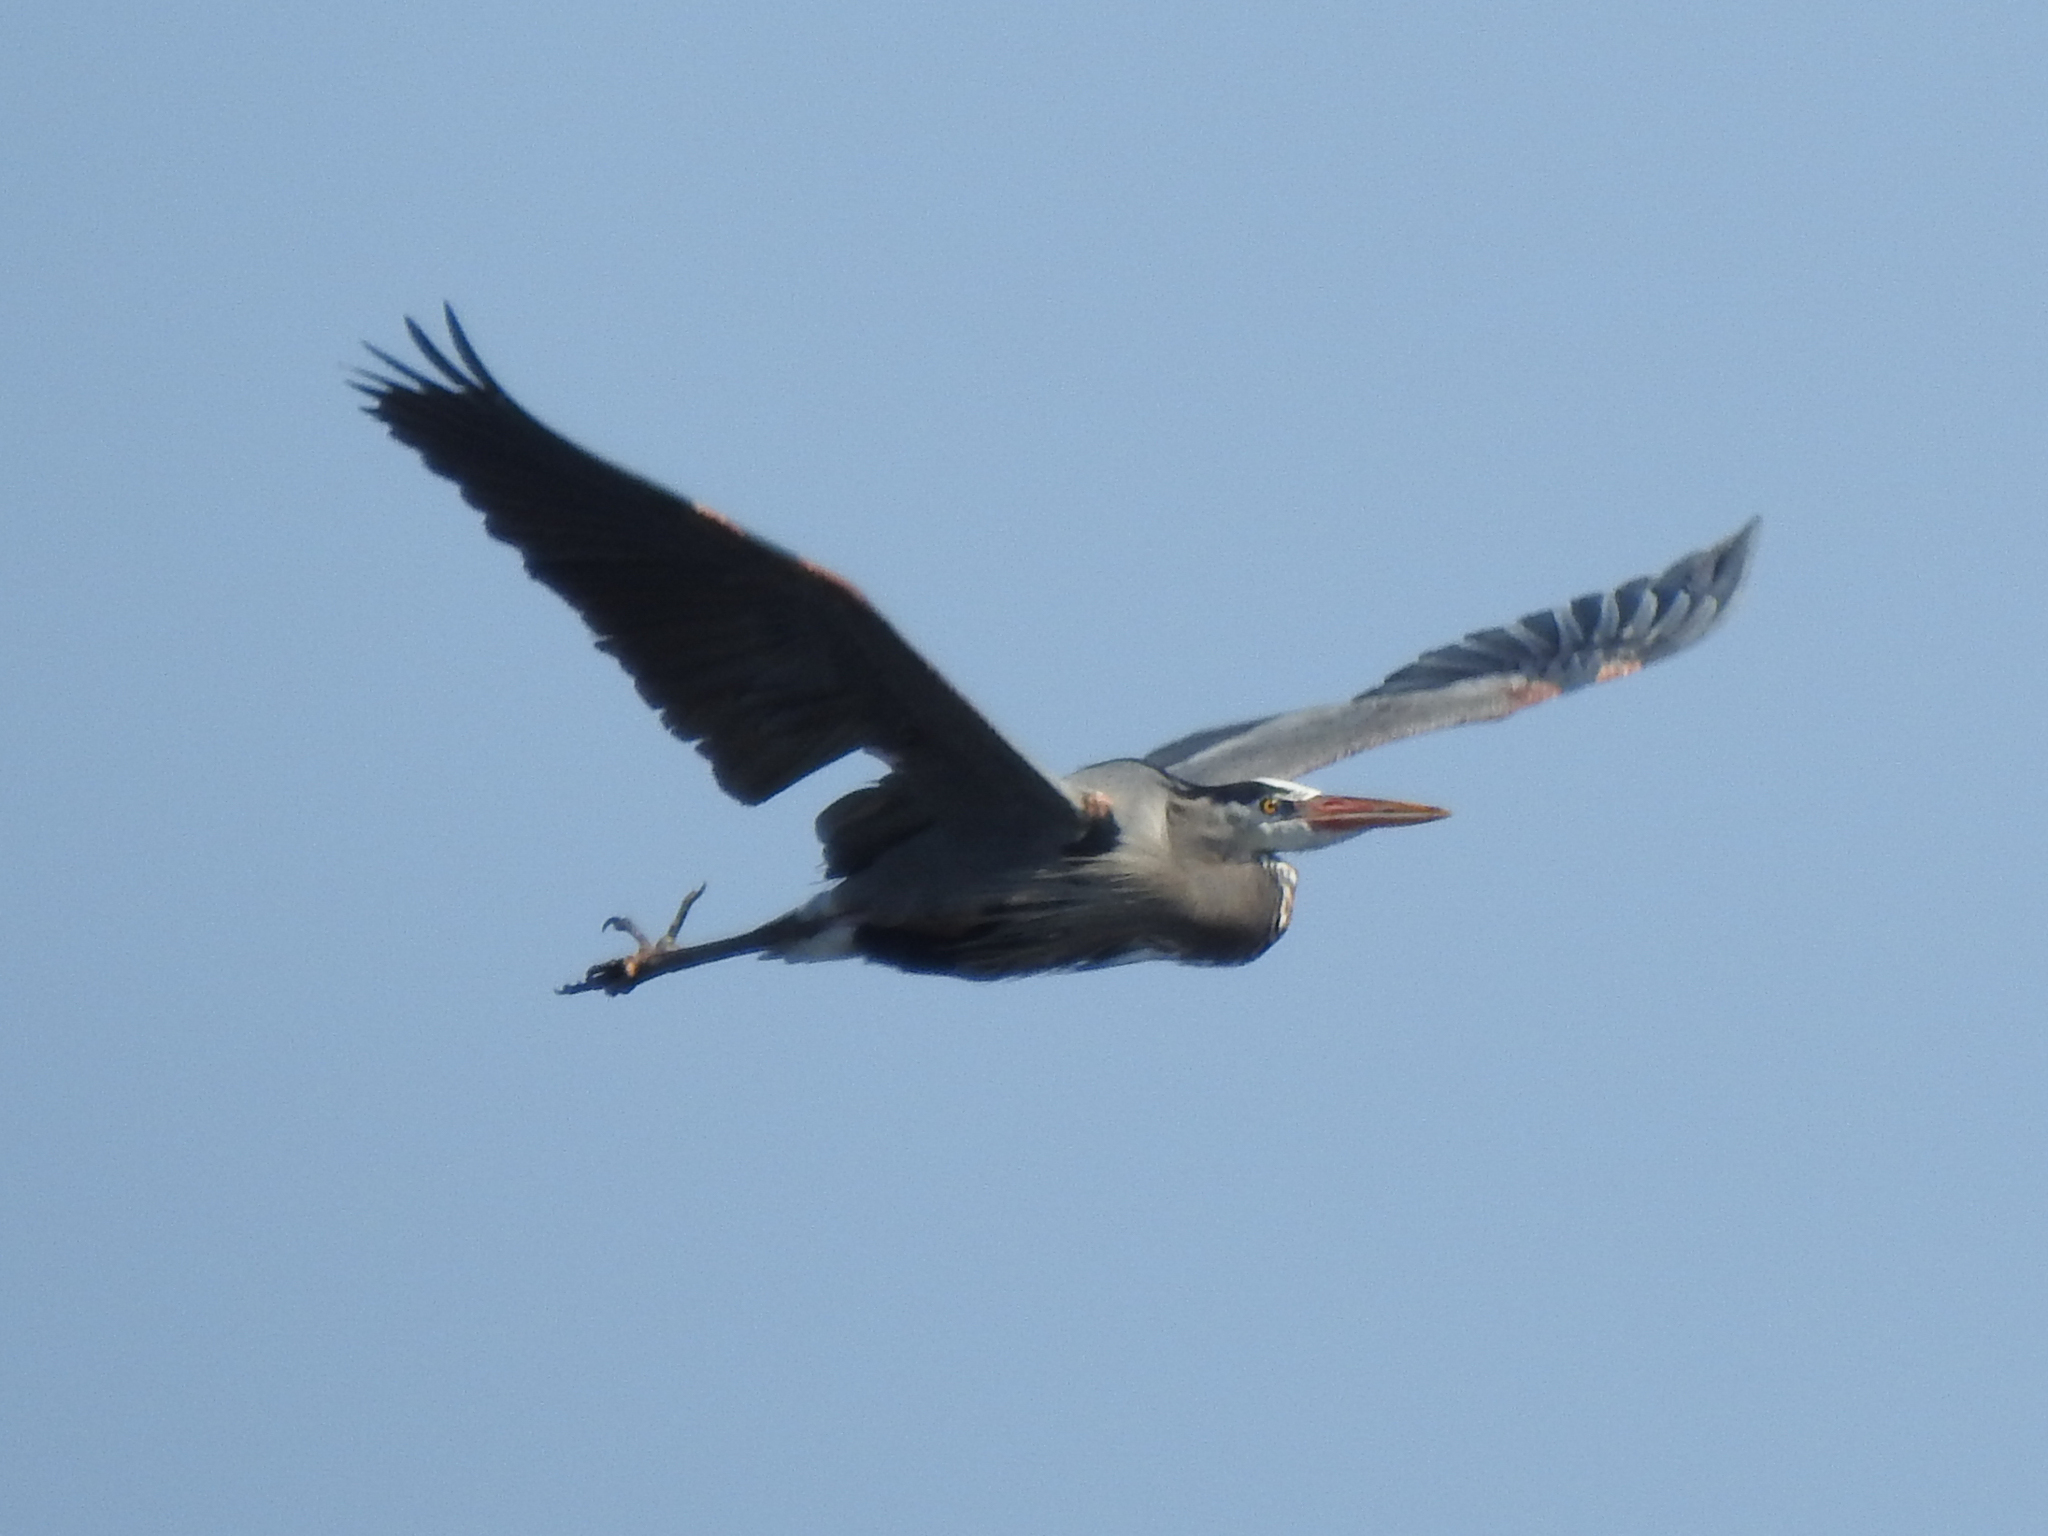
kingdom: Animalia
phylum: Chordata
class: Aves
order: Pelecaniformes
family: Ardeidae
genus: Ardea
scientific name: Ardea herodias
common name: Great blue heron
